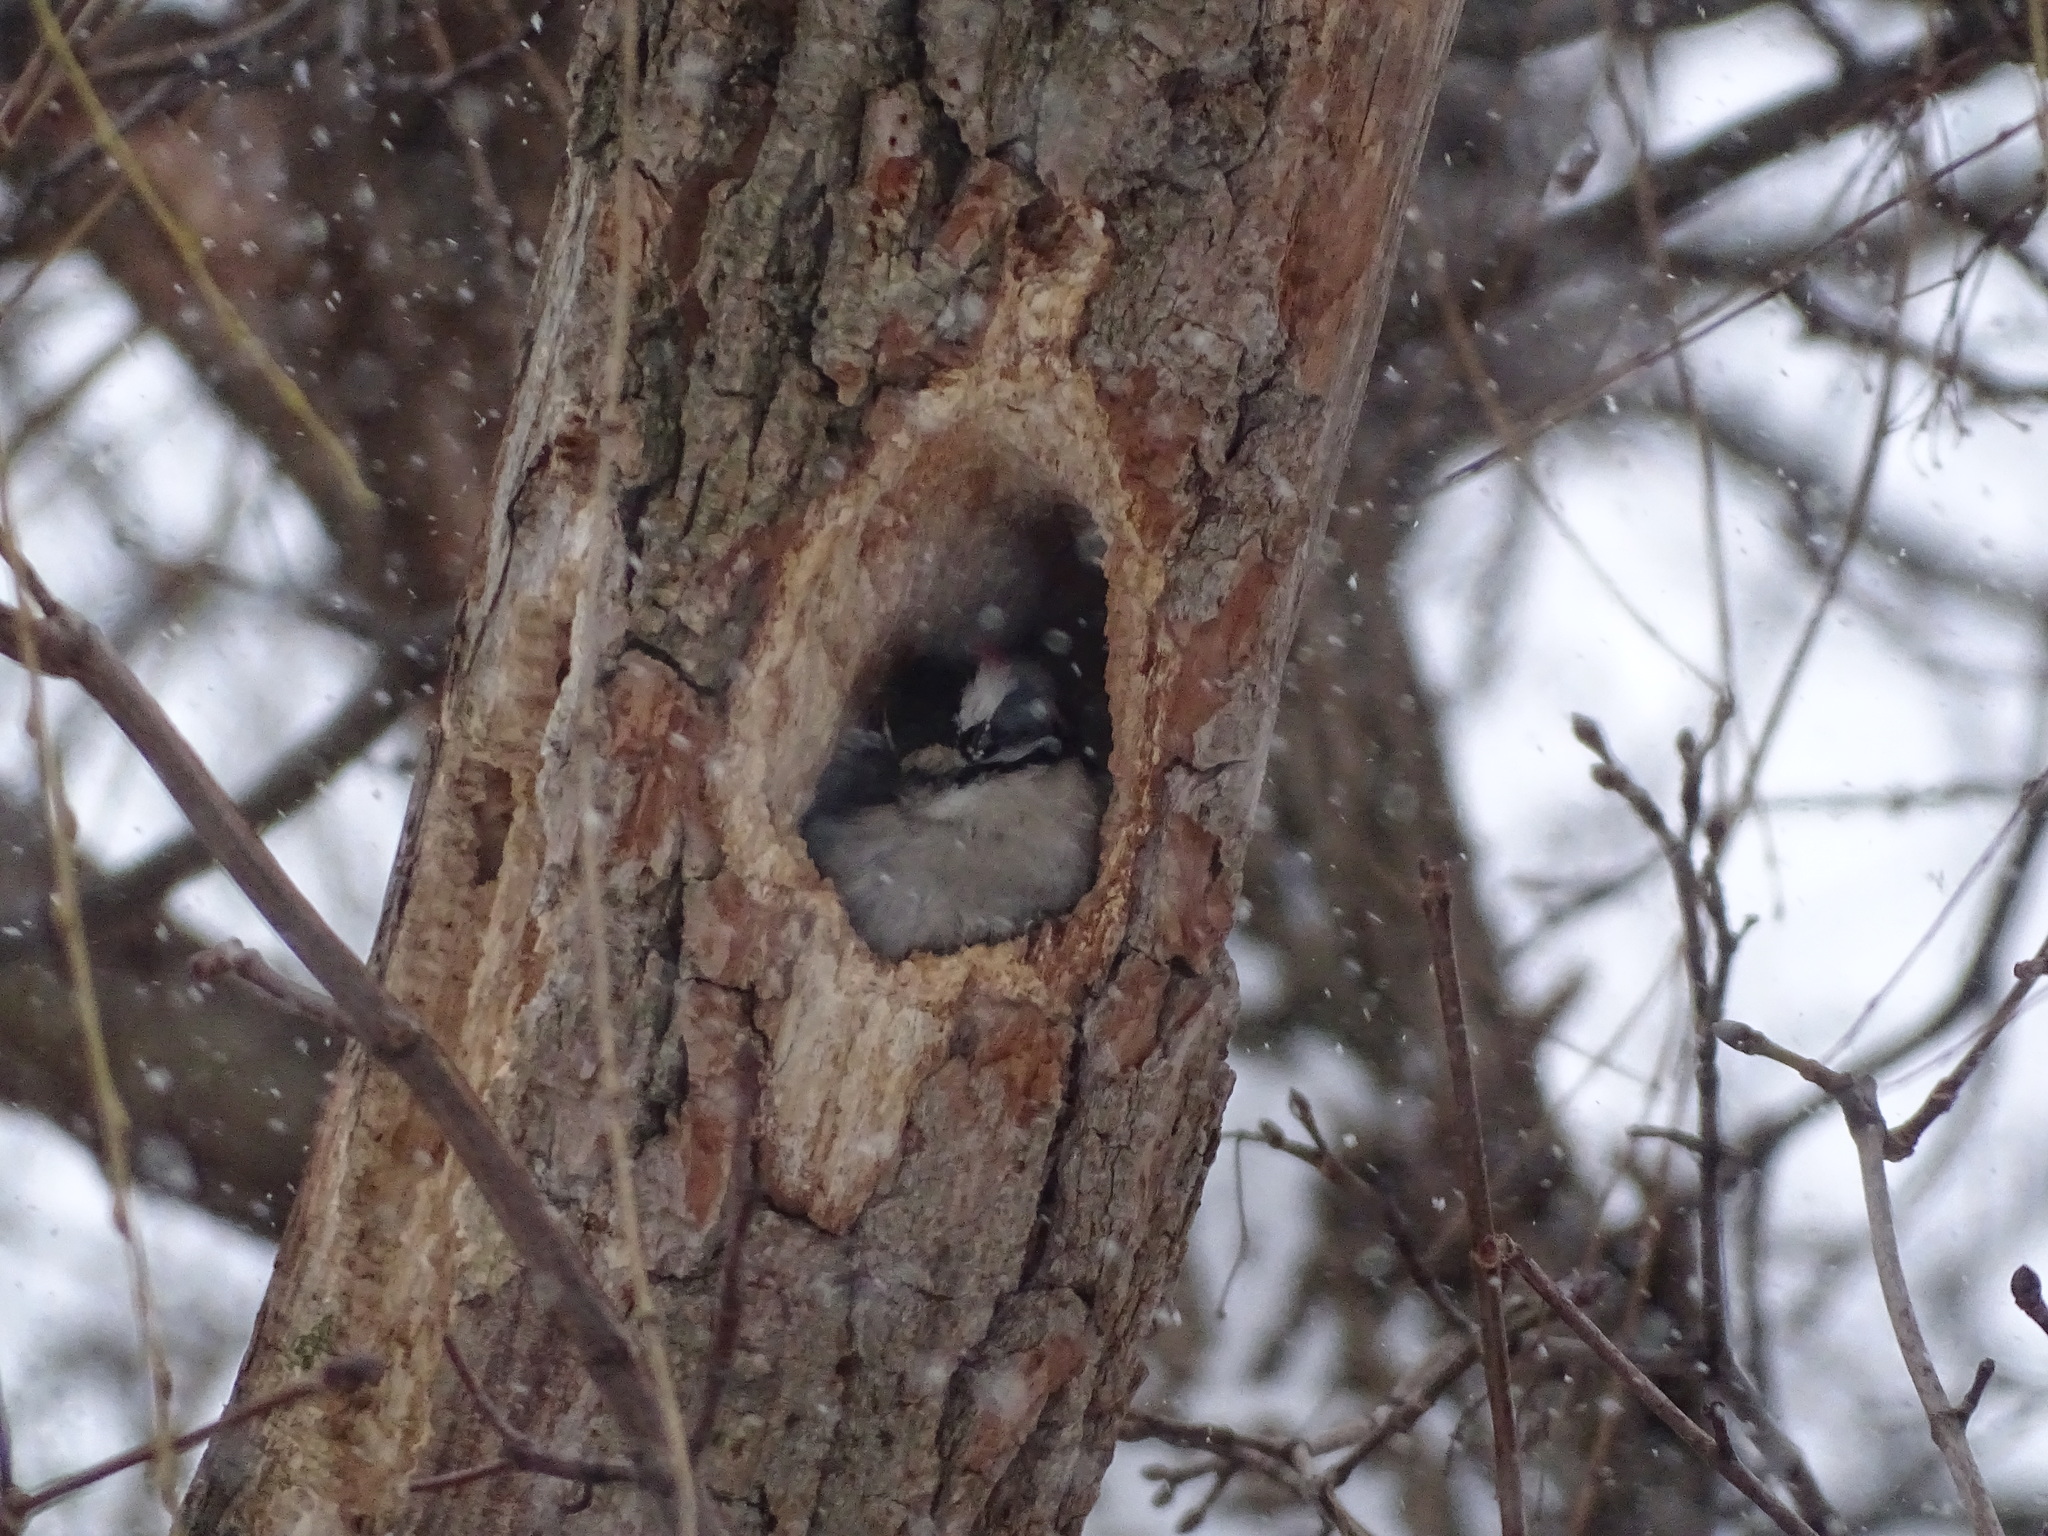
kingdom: Animalia
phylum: Chordata
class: Aves
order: Piciformes
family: Picidae
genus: Dryobates
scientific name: Dryobates pubescens
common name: Downy woodpecker
